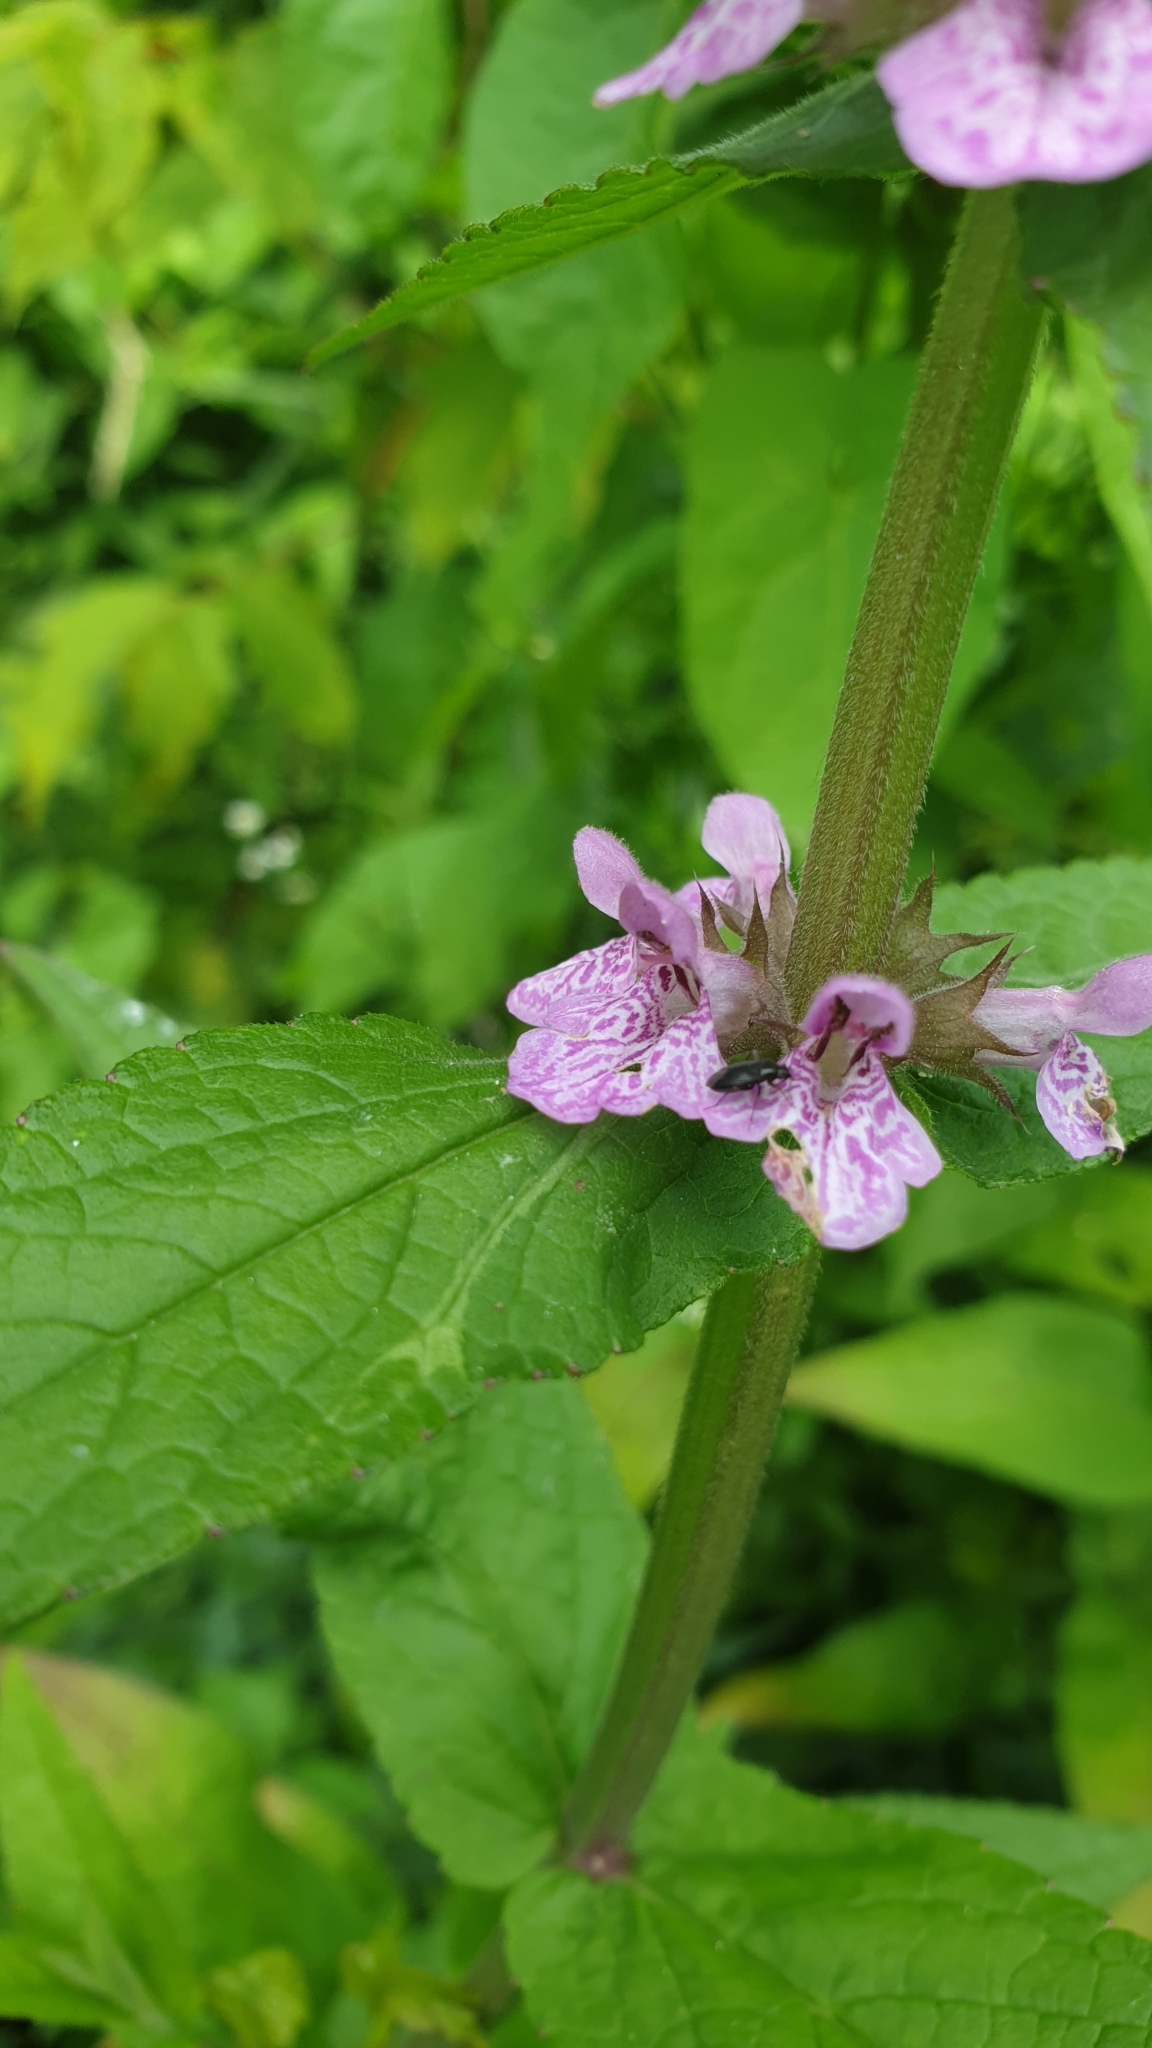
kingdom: Plantae
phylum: Tracheophyta
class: Magnoliopsida
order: Lamiales
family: Lamiaceae
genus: Stachys
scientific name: Stachys palustris
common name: Marsh woundwort
